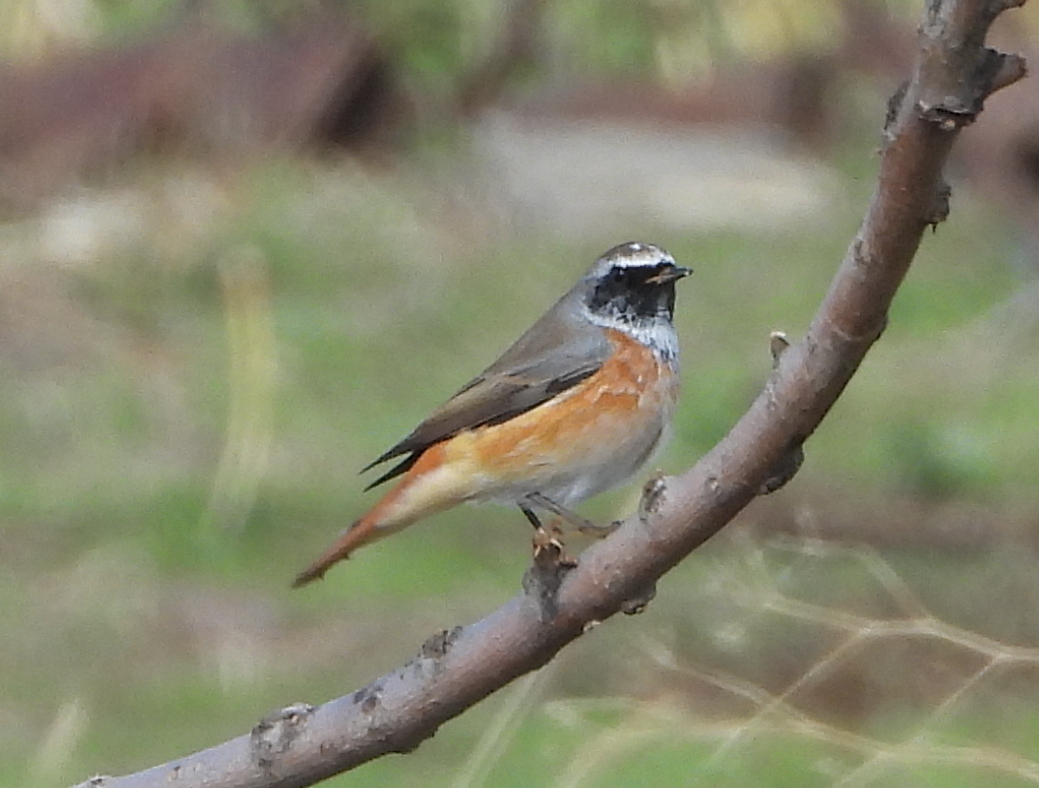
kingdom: Animalia
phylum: Chordata
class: Aves
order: Passeriformes
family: Muscicapidae
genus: Phoenicurus
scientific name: Phoenicurus phoenicurus
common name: Common redstart
